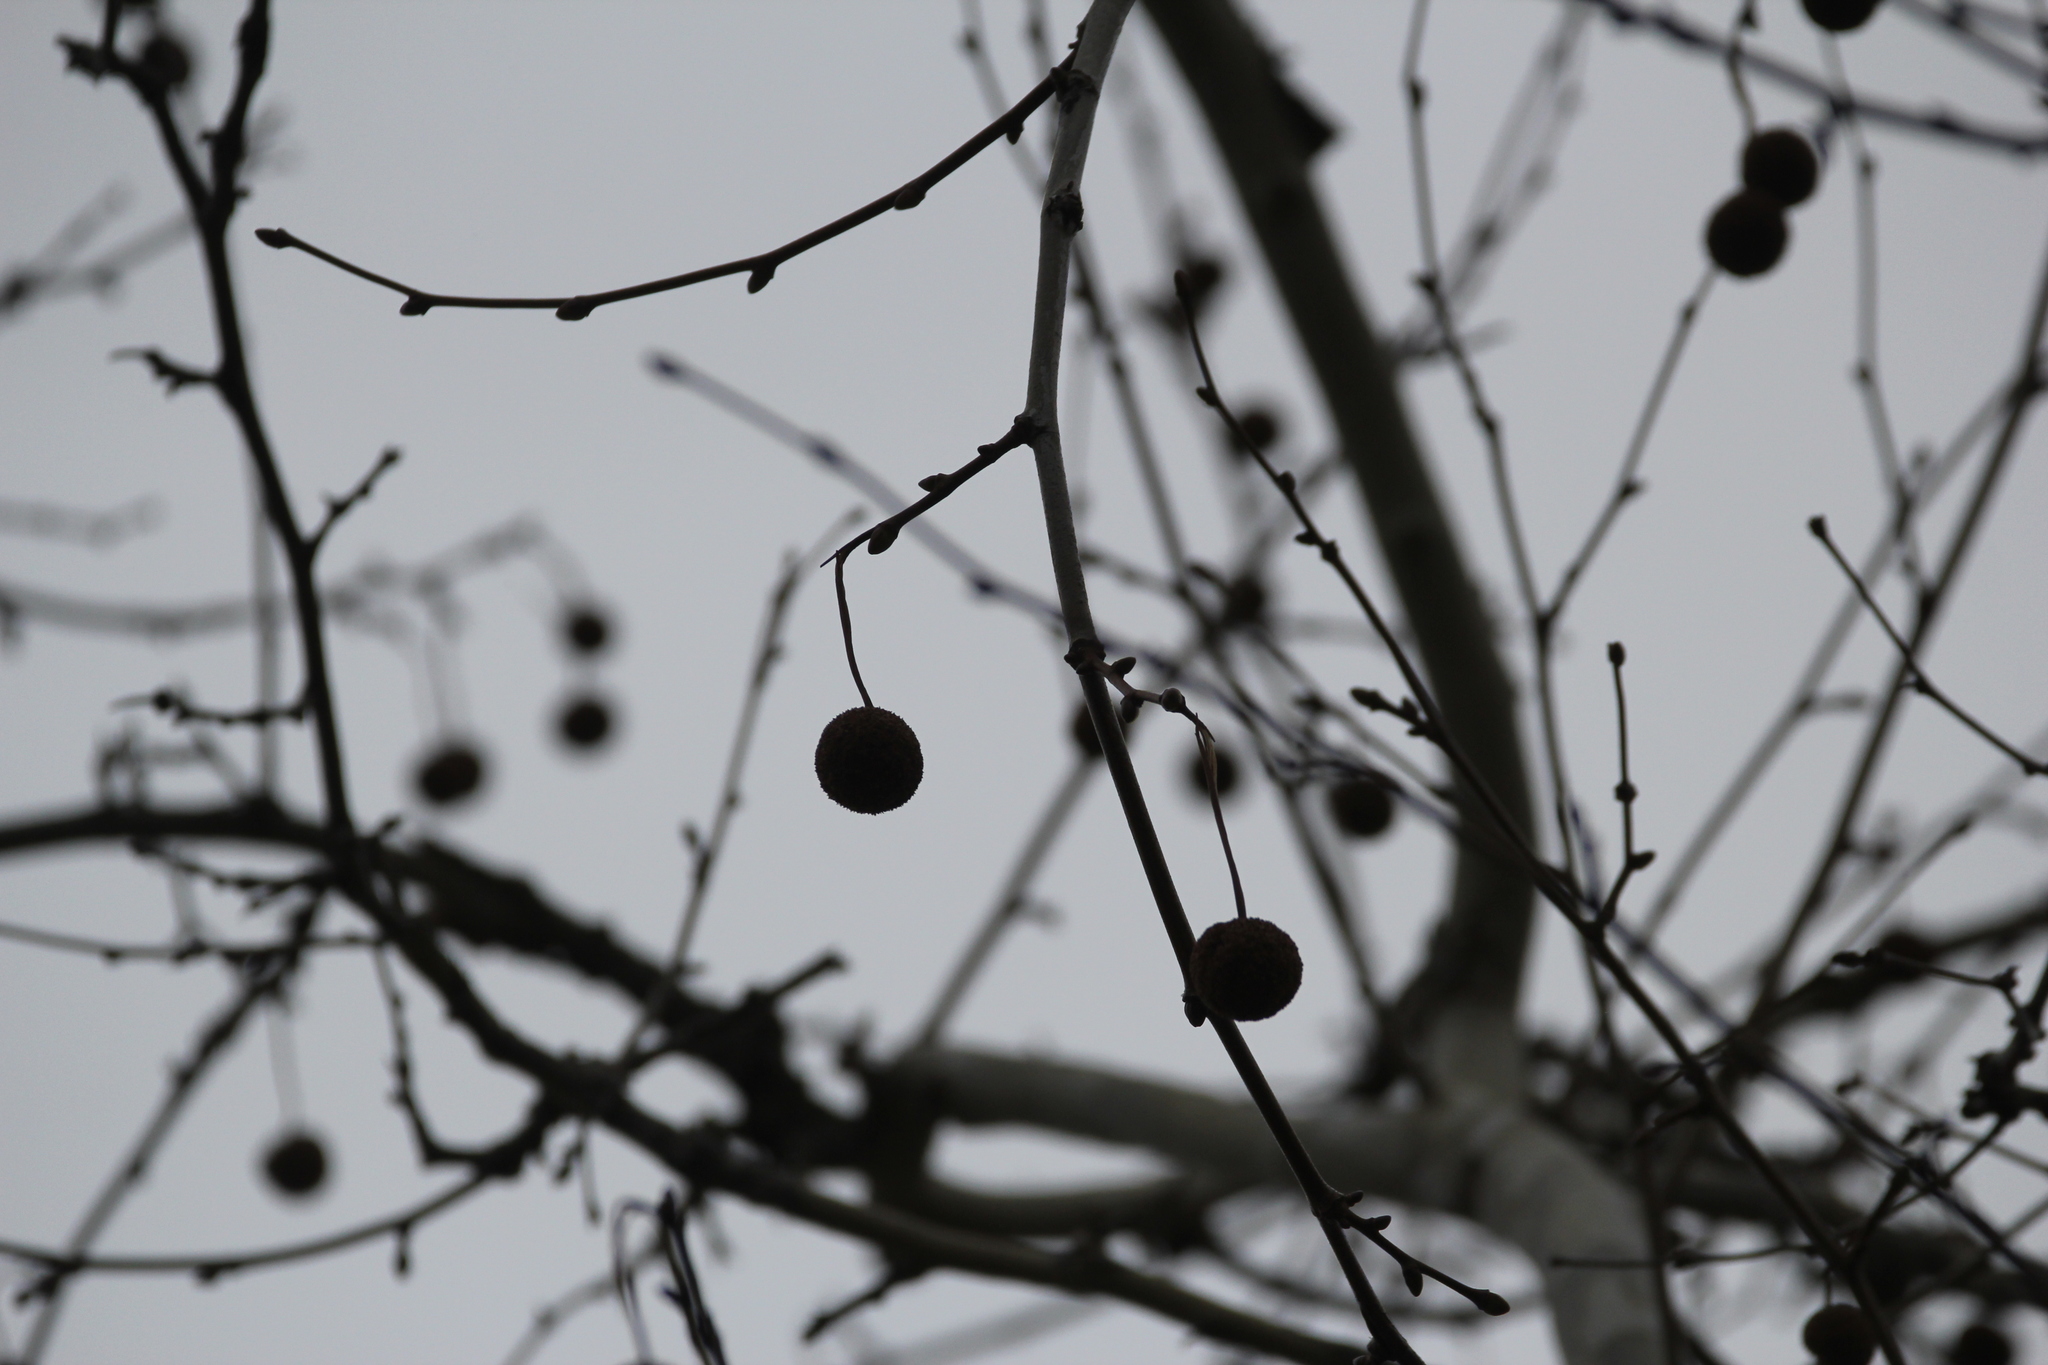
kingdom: Plantae
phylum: Tracheophyta
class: Magnoliopsida
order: Proteales
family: Platanaceae
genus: Platanus
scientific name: Platanus occidentalis
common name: American sycamore
